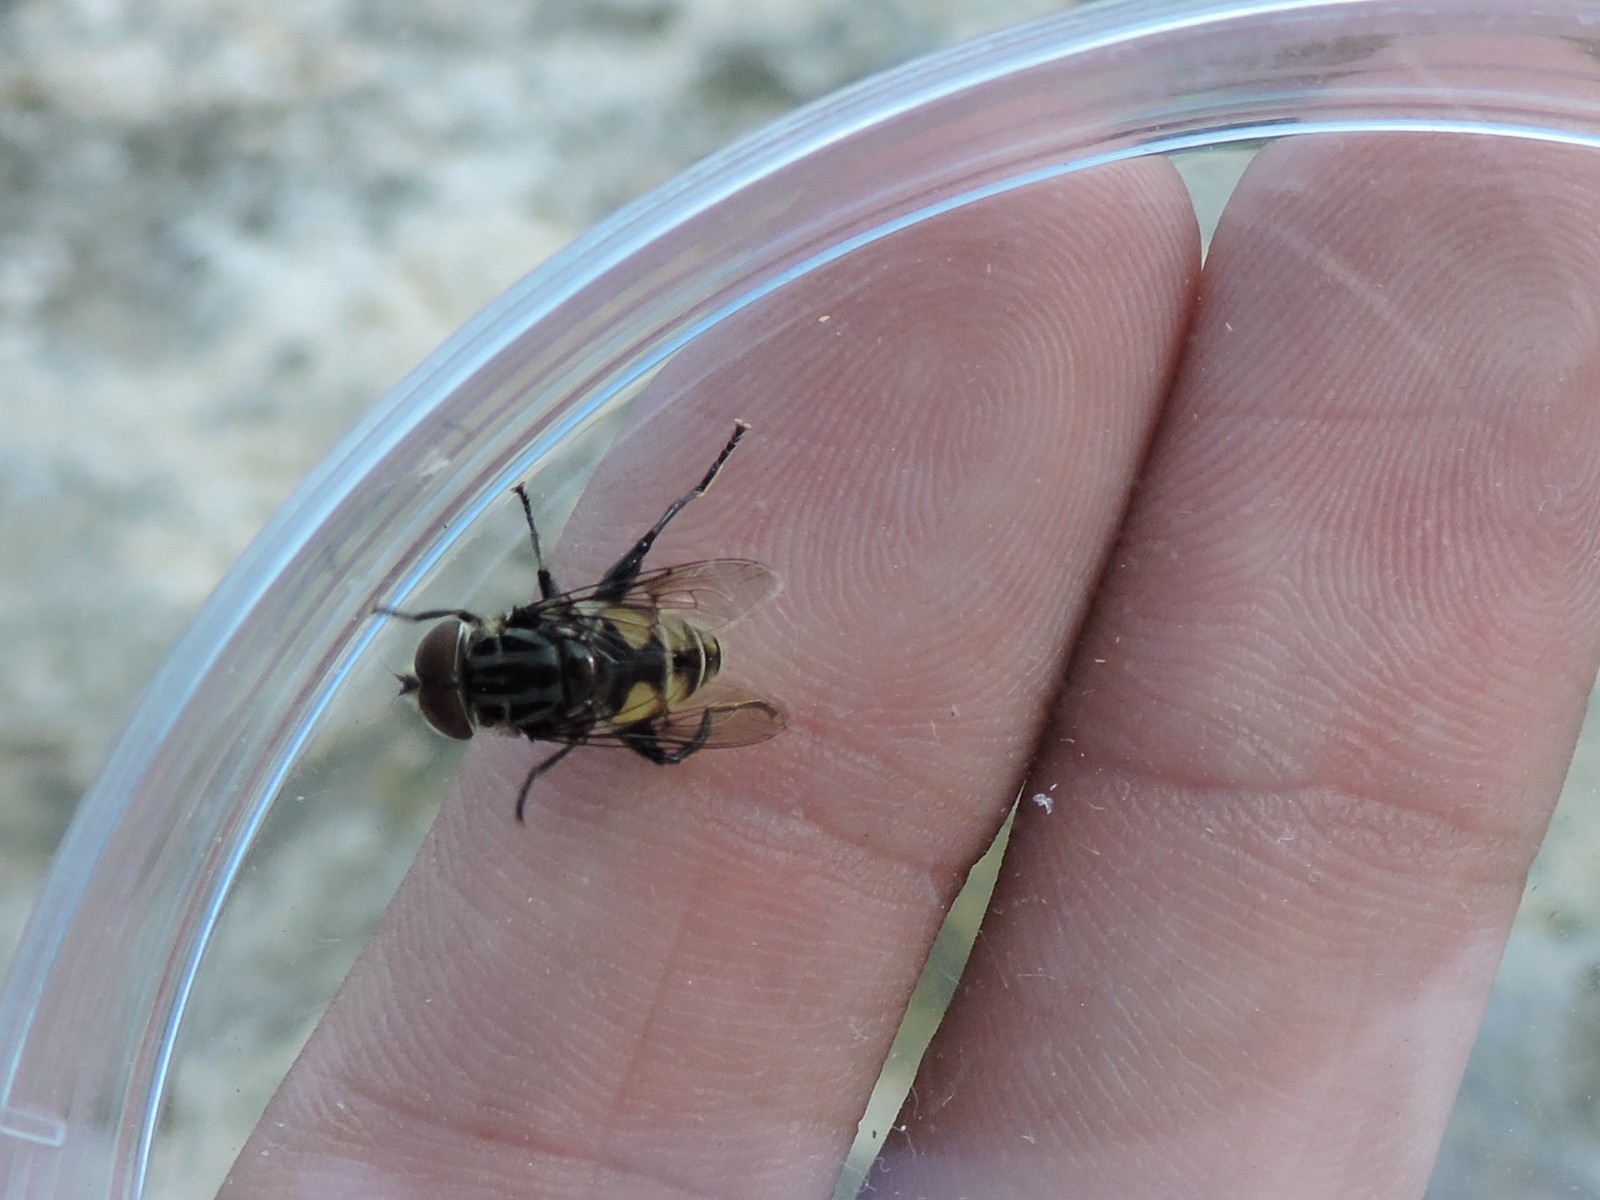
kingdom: Animalia
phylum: Arthropoda
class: Insecta
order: Diptera
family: Syrphidae
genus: Palpada
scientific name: Palpada furcata
